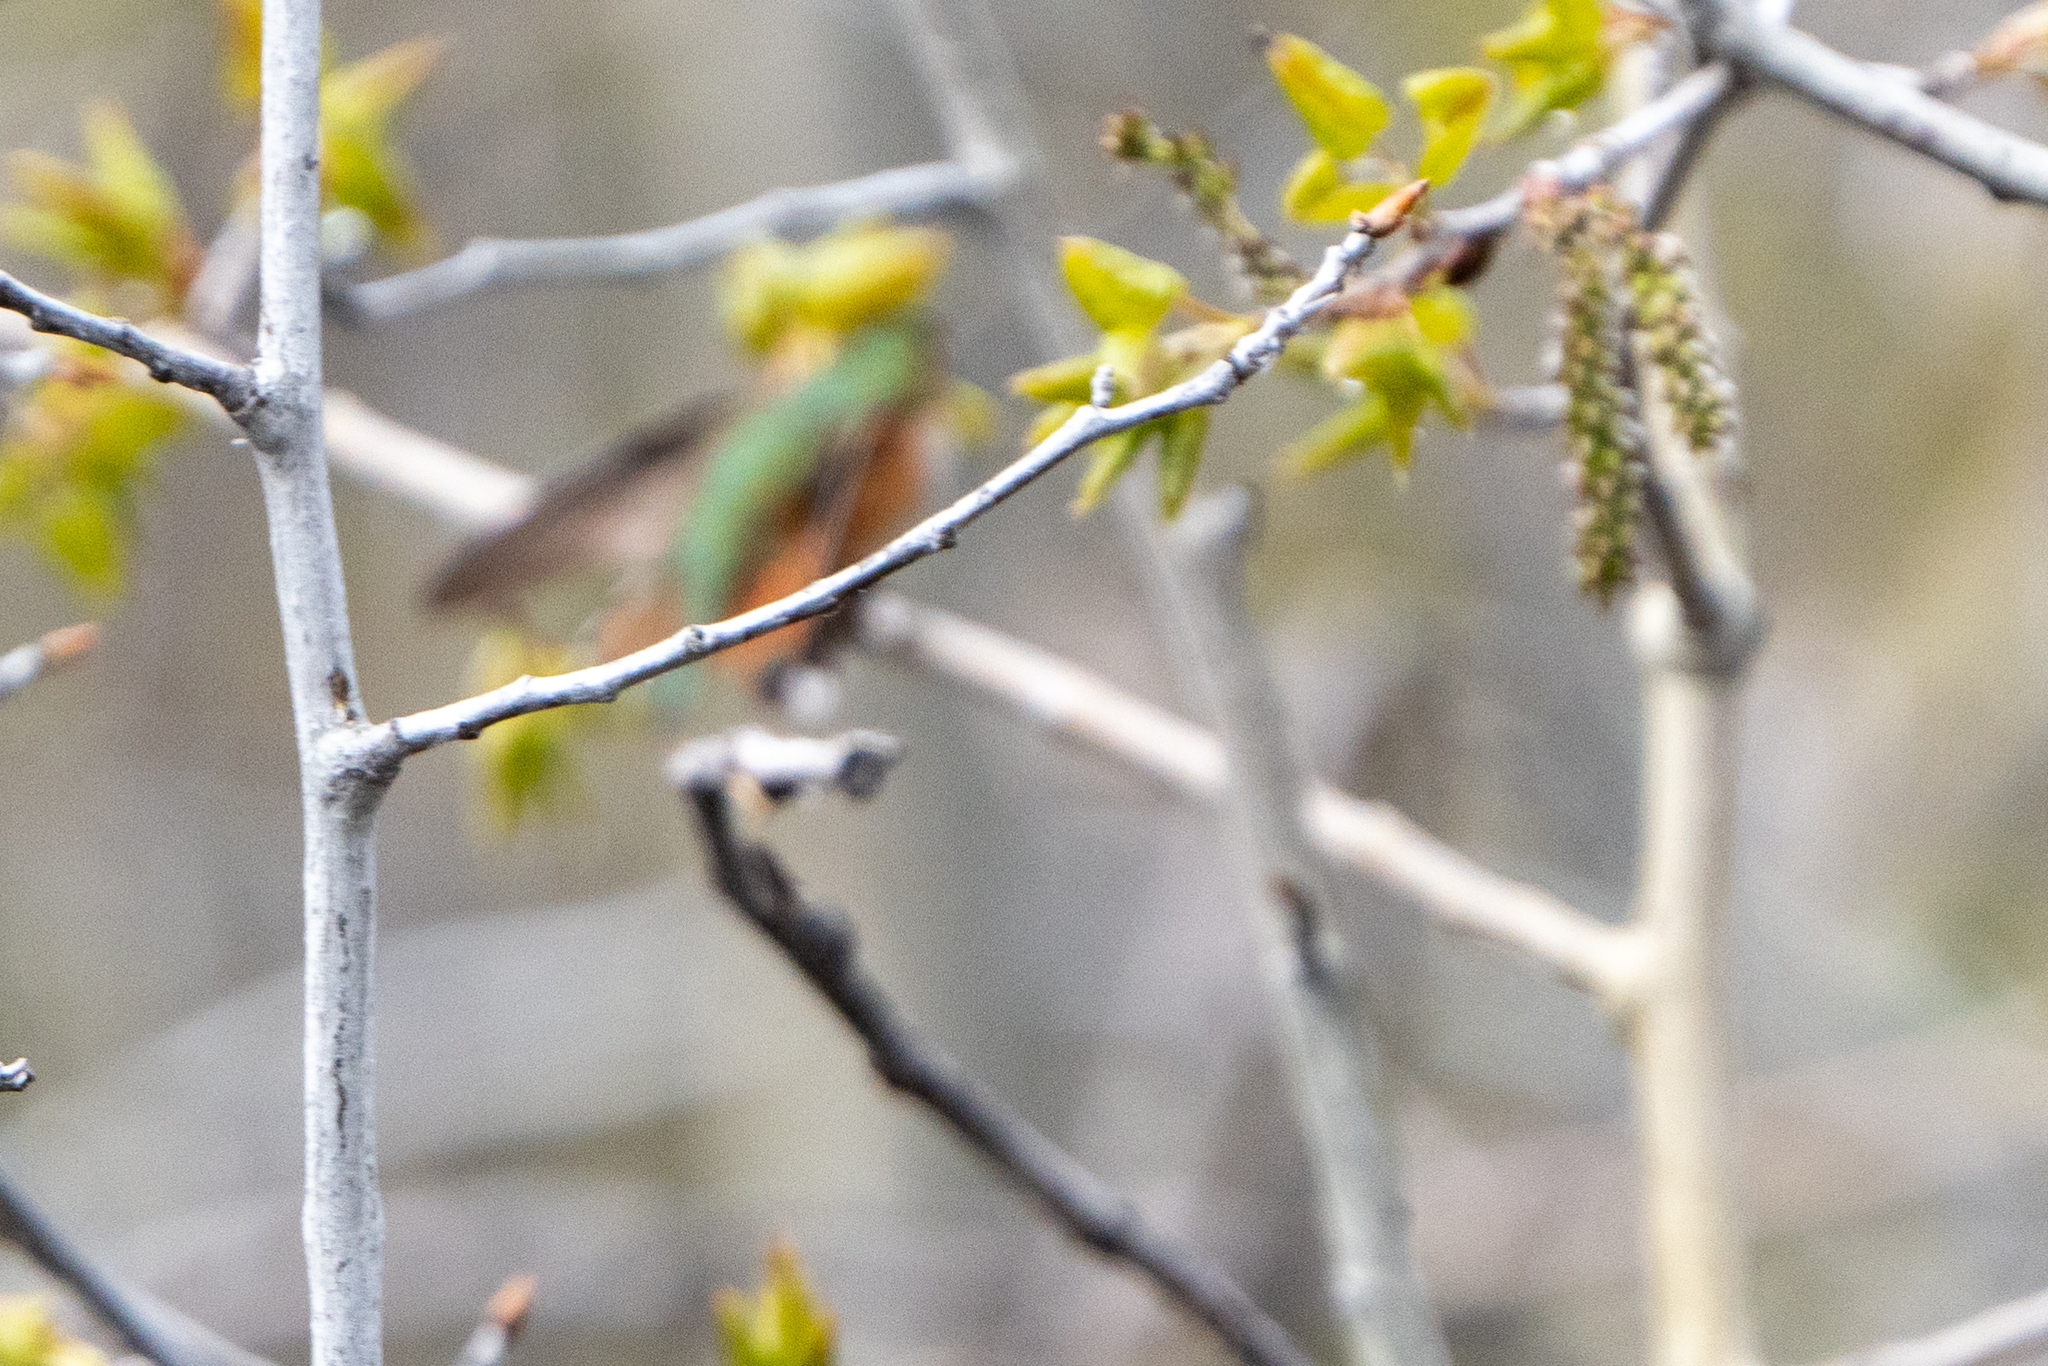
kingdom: Animalia
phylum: Chordata
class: Aves
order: Apodiformes
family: Trochilidae
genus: Selasphorus
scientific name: Selasphorus rufus
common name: Rufous hummingbird
